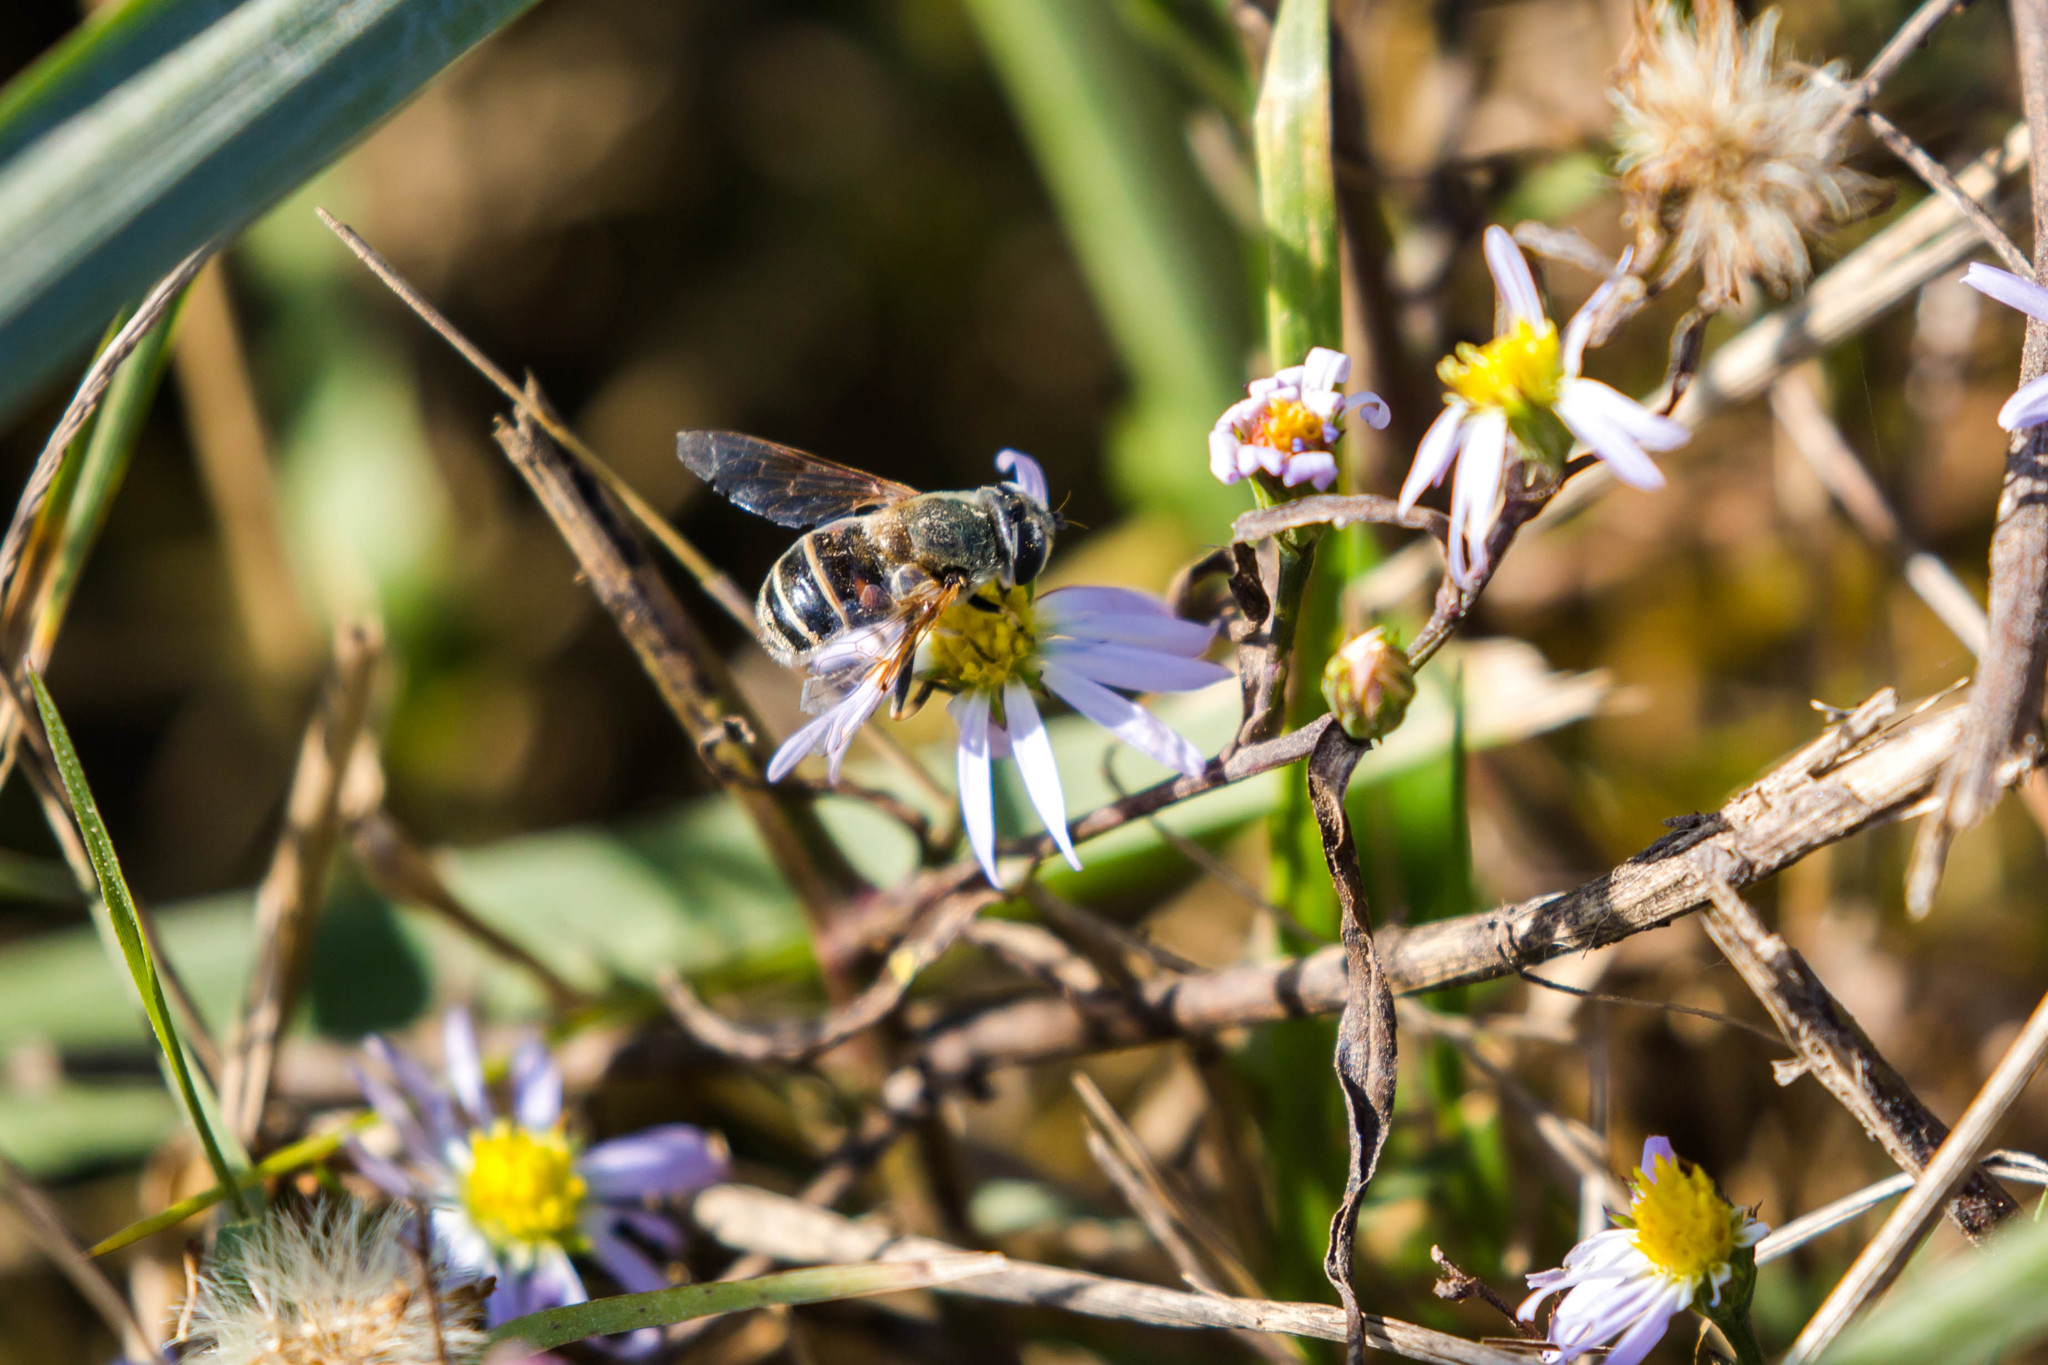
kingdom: Animalia
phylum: Arthropoda
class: Insecta
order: Diptera
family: Syrphidae
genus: Eristalis
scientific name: Eristalis stipator
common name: Yellow-shouldered drone fly
